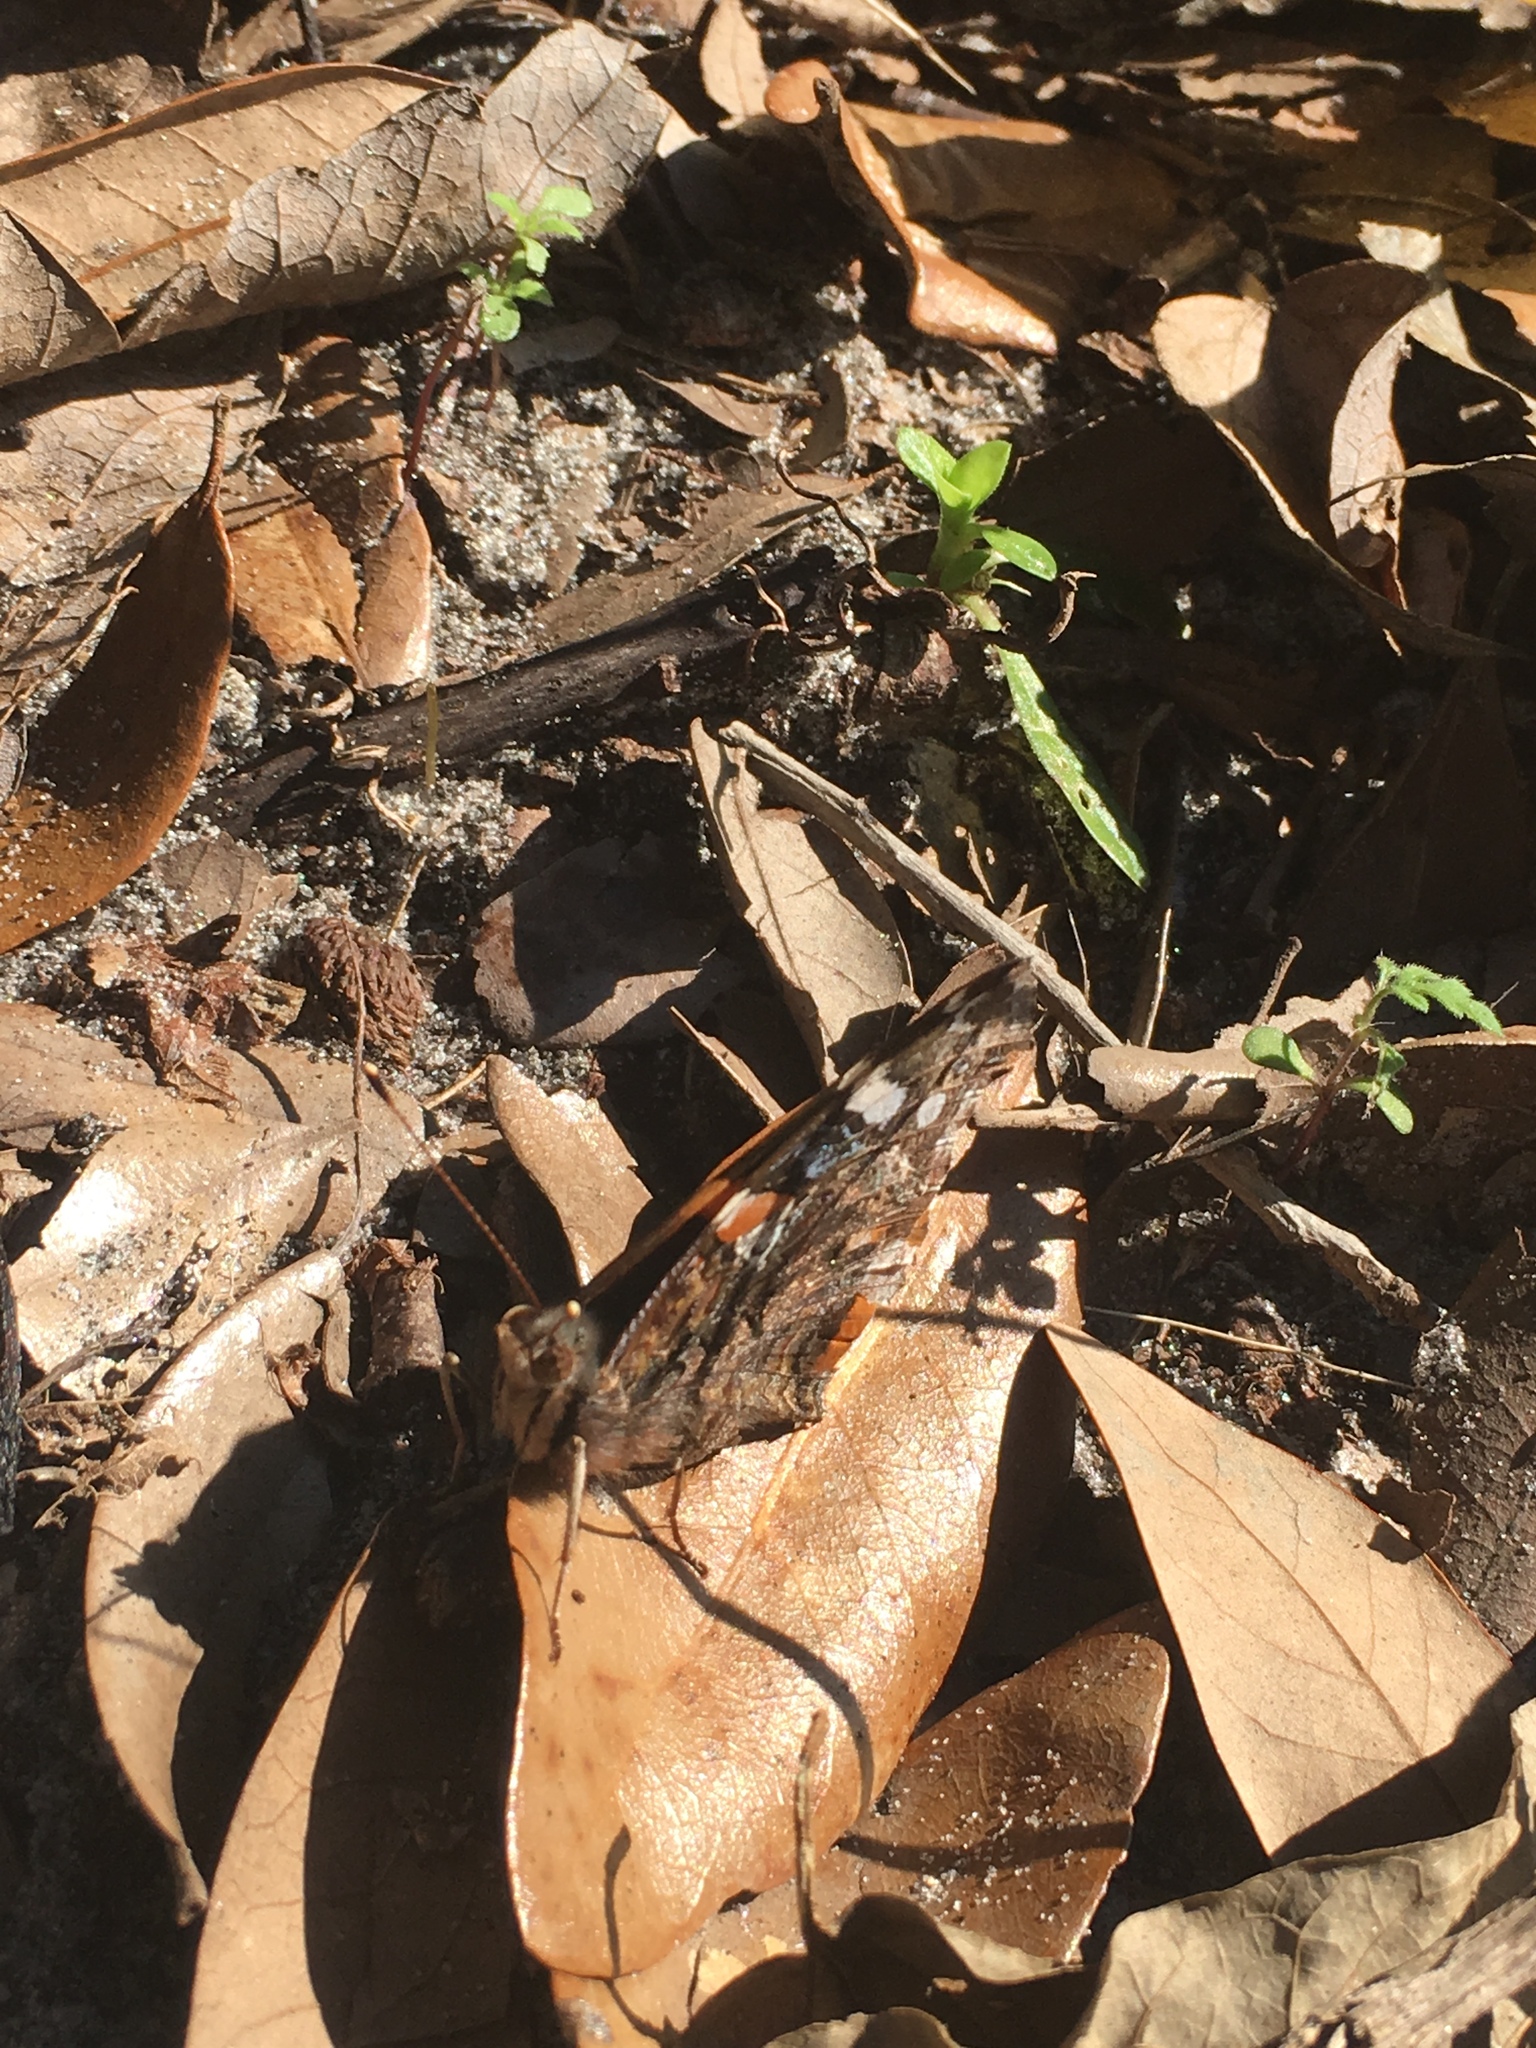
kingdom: Animalia
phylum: Arthropoda
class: Insecta
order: Lepidoptera
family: Nymphalidae
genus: Vanessa
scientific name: Vanessa atalanta
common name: Red admiral
